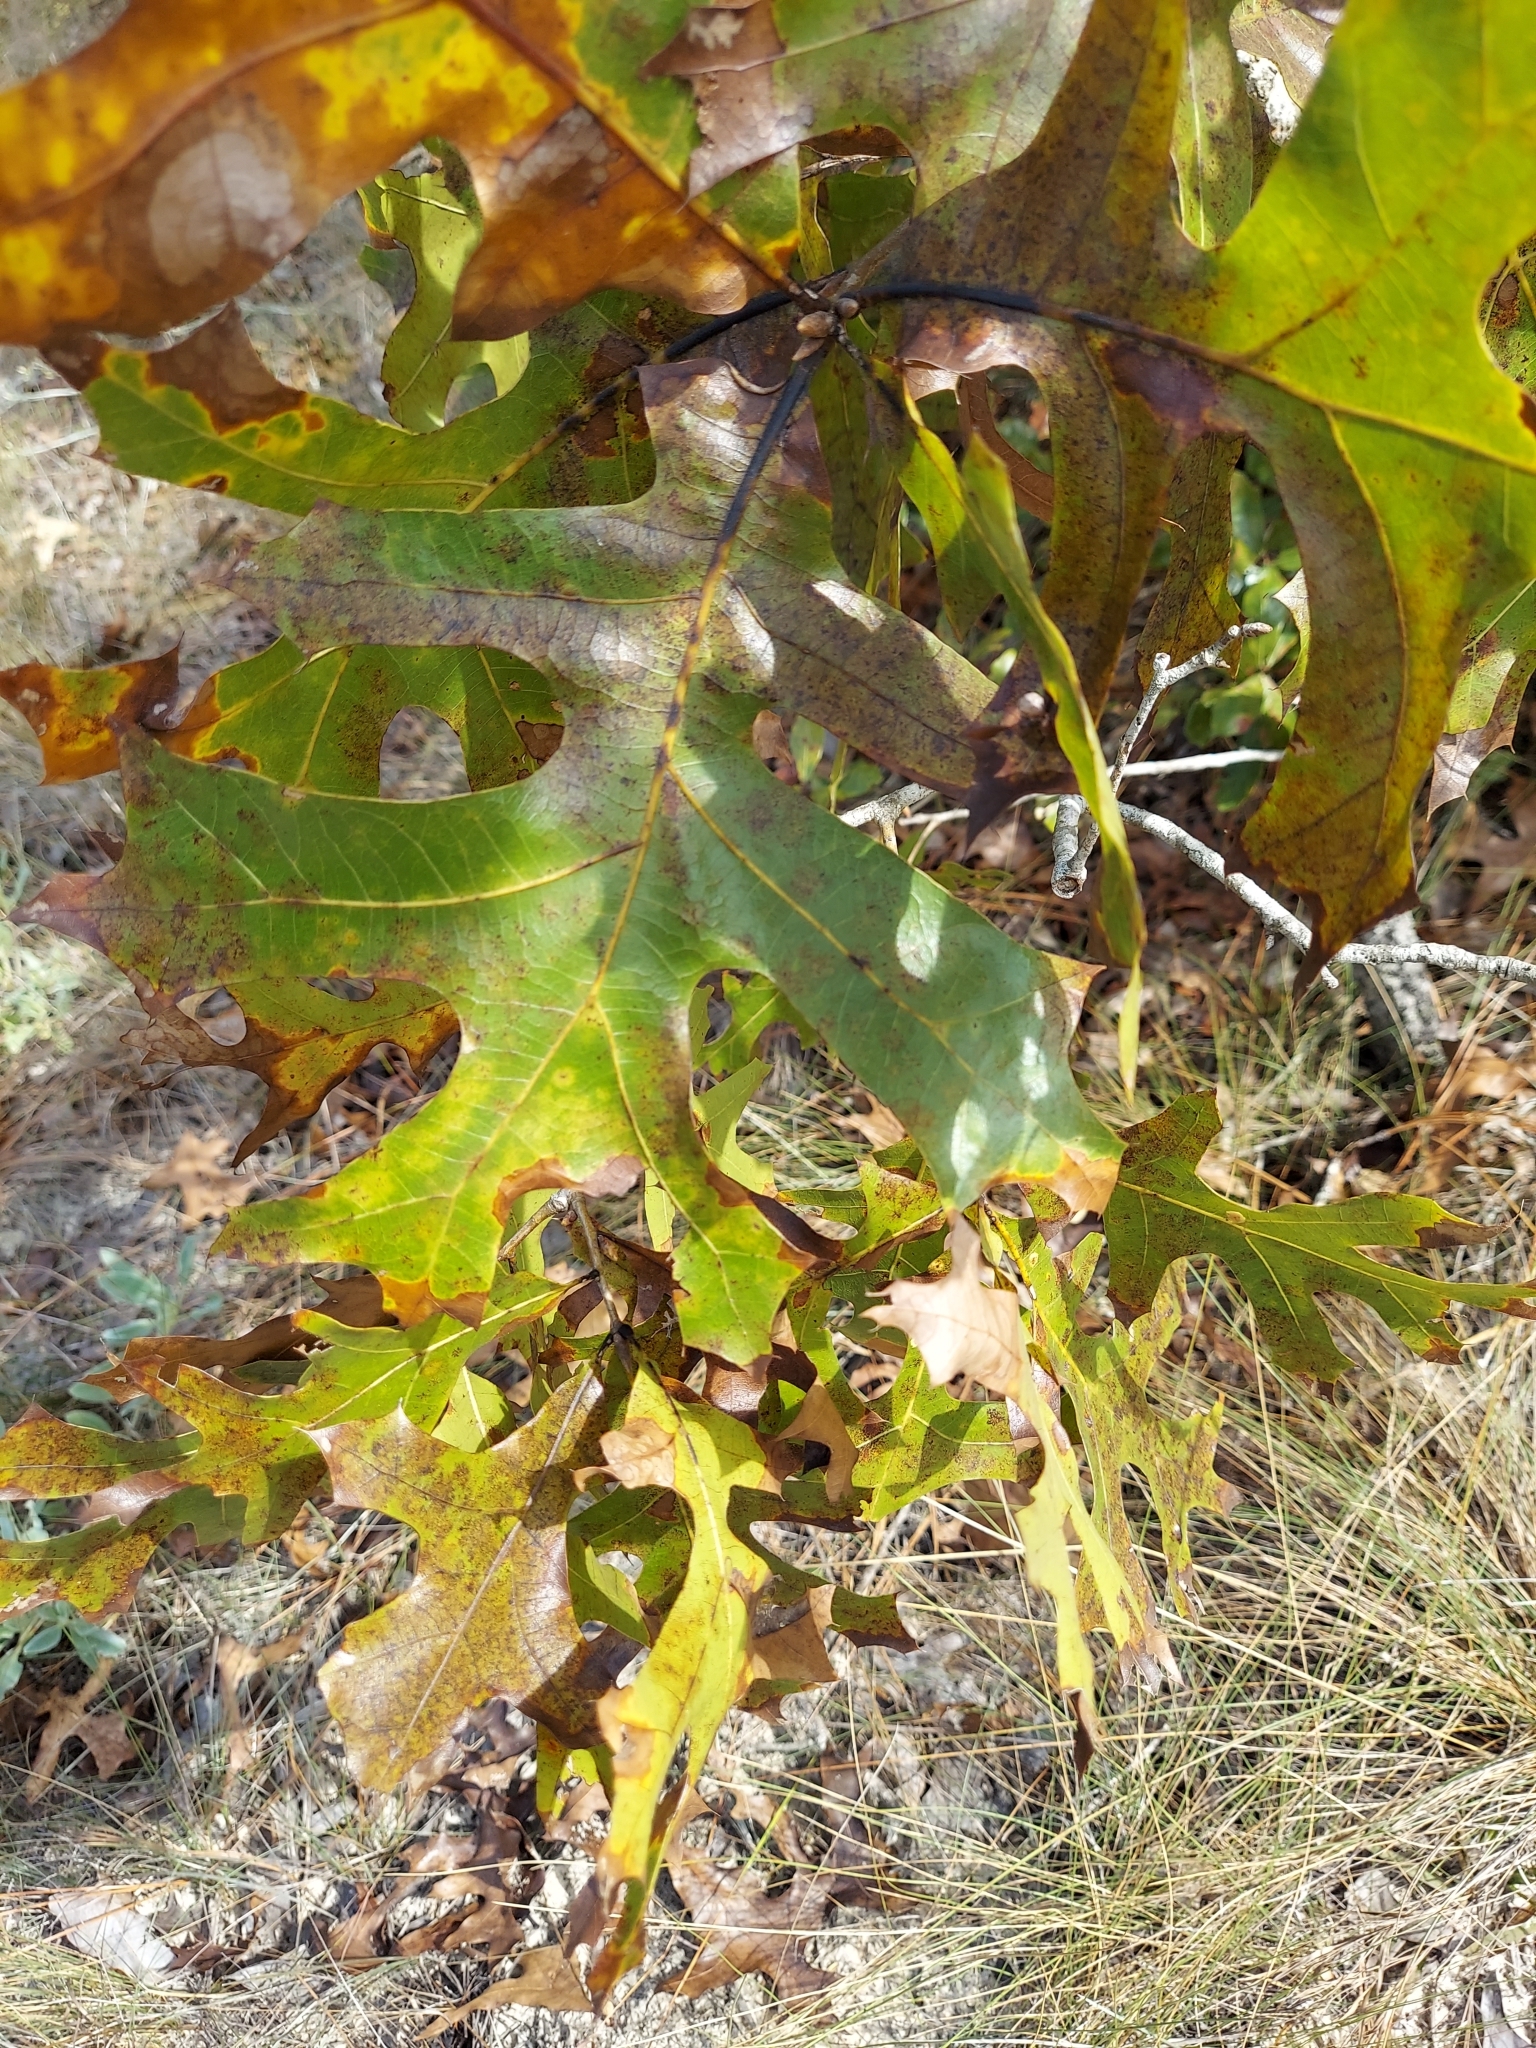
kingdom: Plantae
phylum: Tracheophyta
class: Magnoliopsida
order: Fagales
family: Fagaceae
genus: Quercus
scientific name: Quercus laevis
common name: Turkey oak
